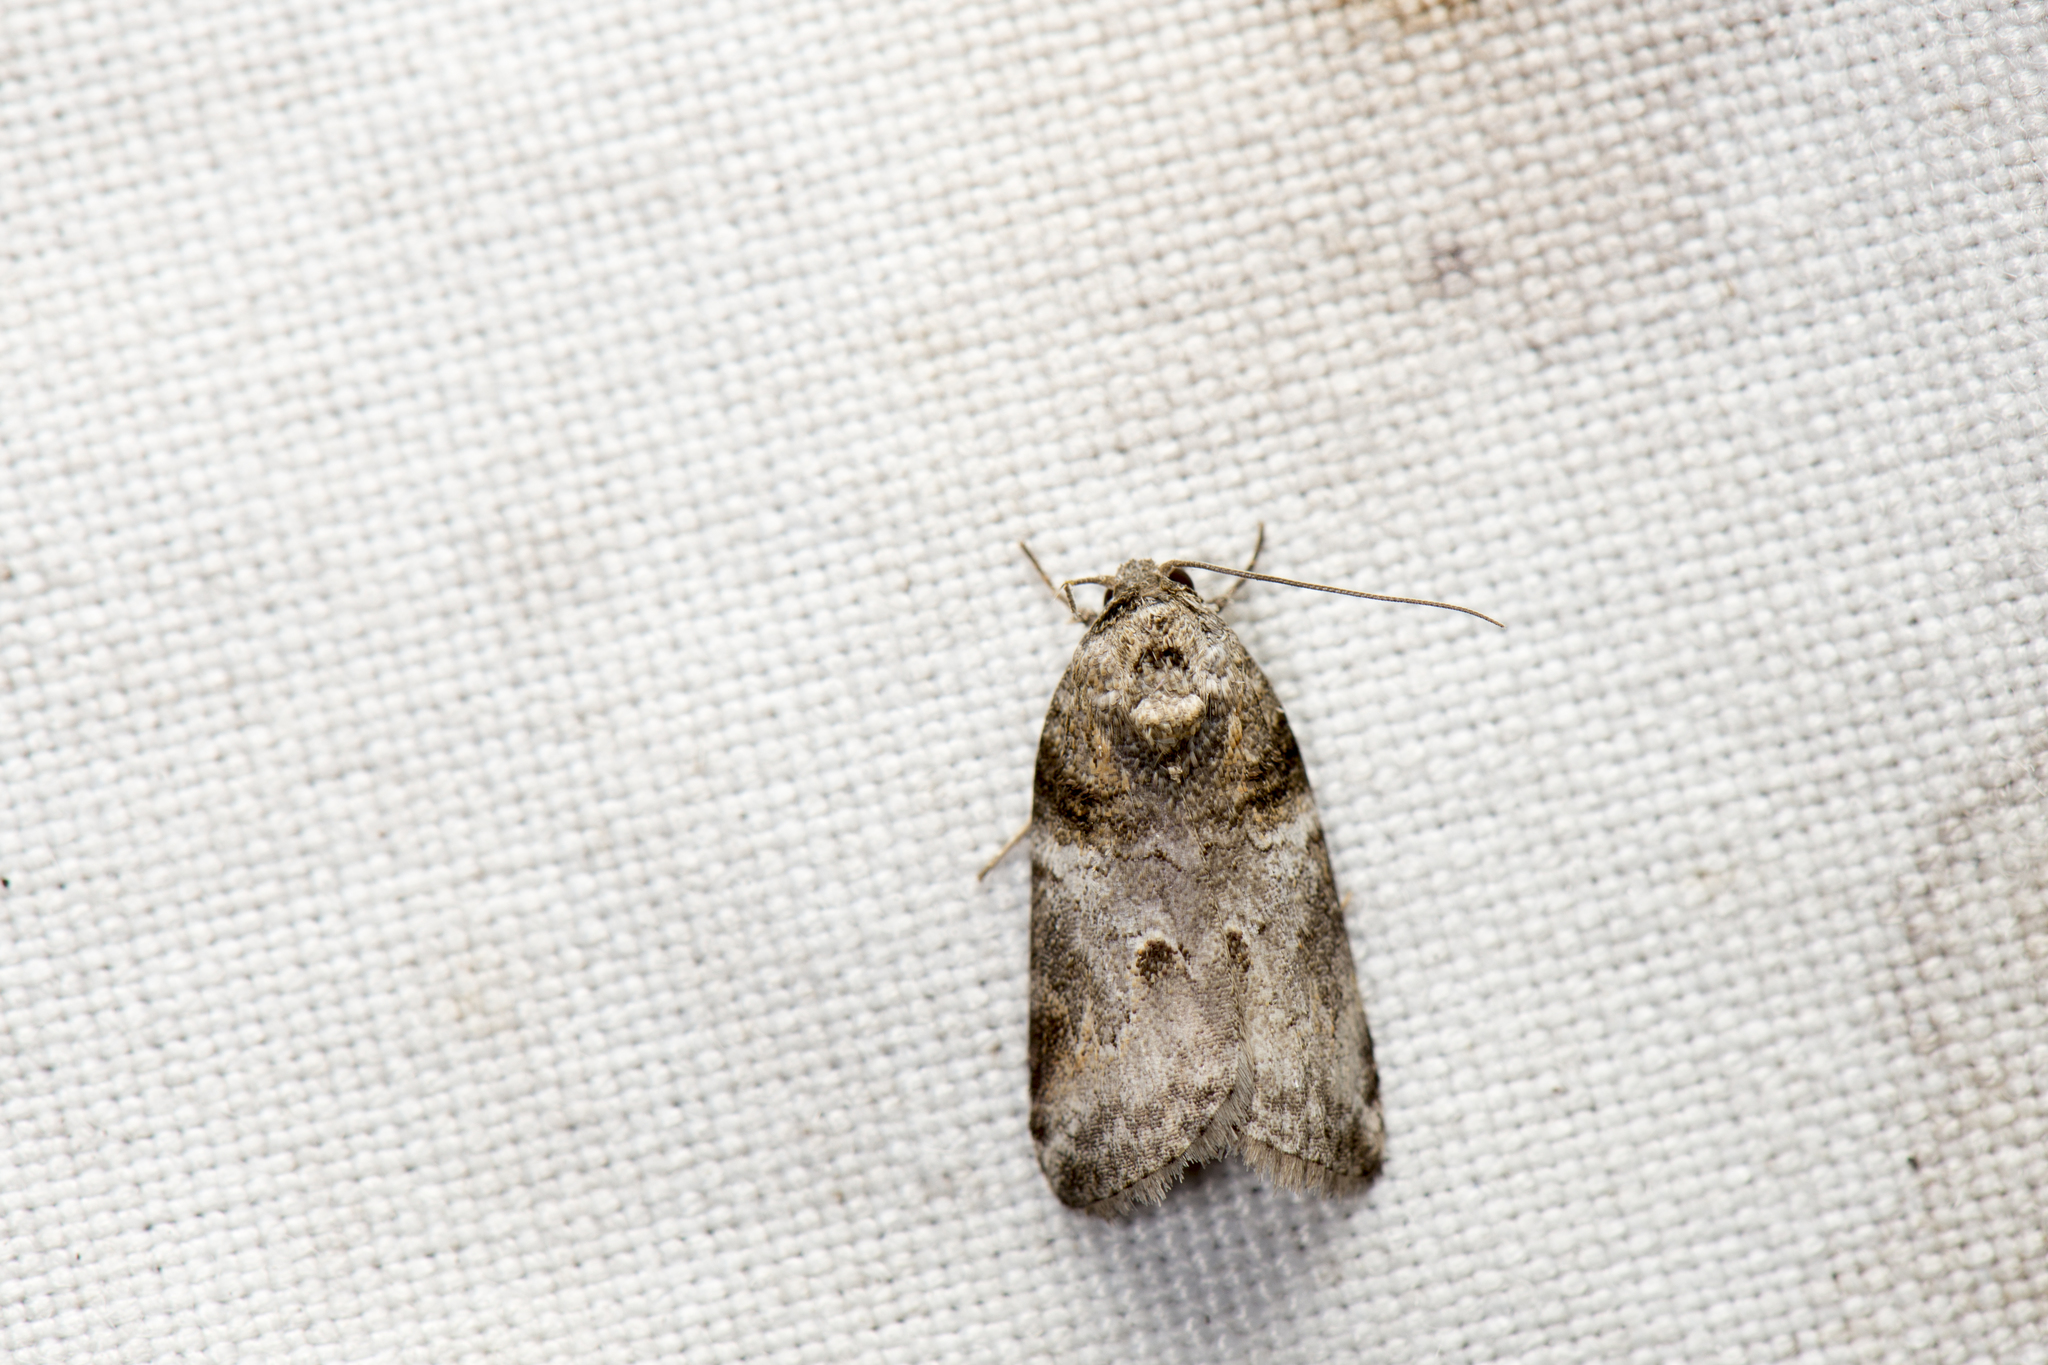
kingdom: Animalia
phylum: Arthropoda
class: Insecta
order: Lepidoptera
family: Nolidae
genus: Garella
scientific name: Garella ruficirra
